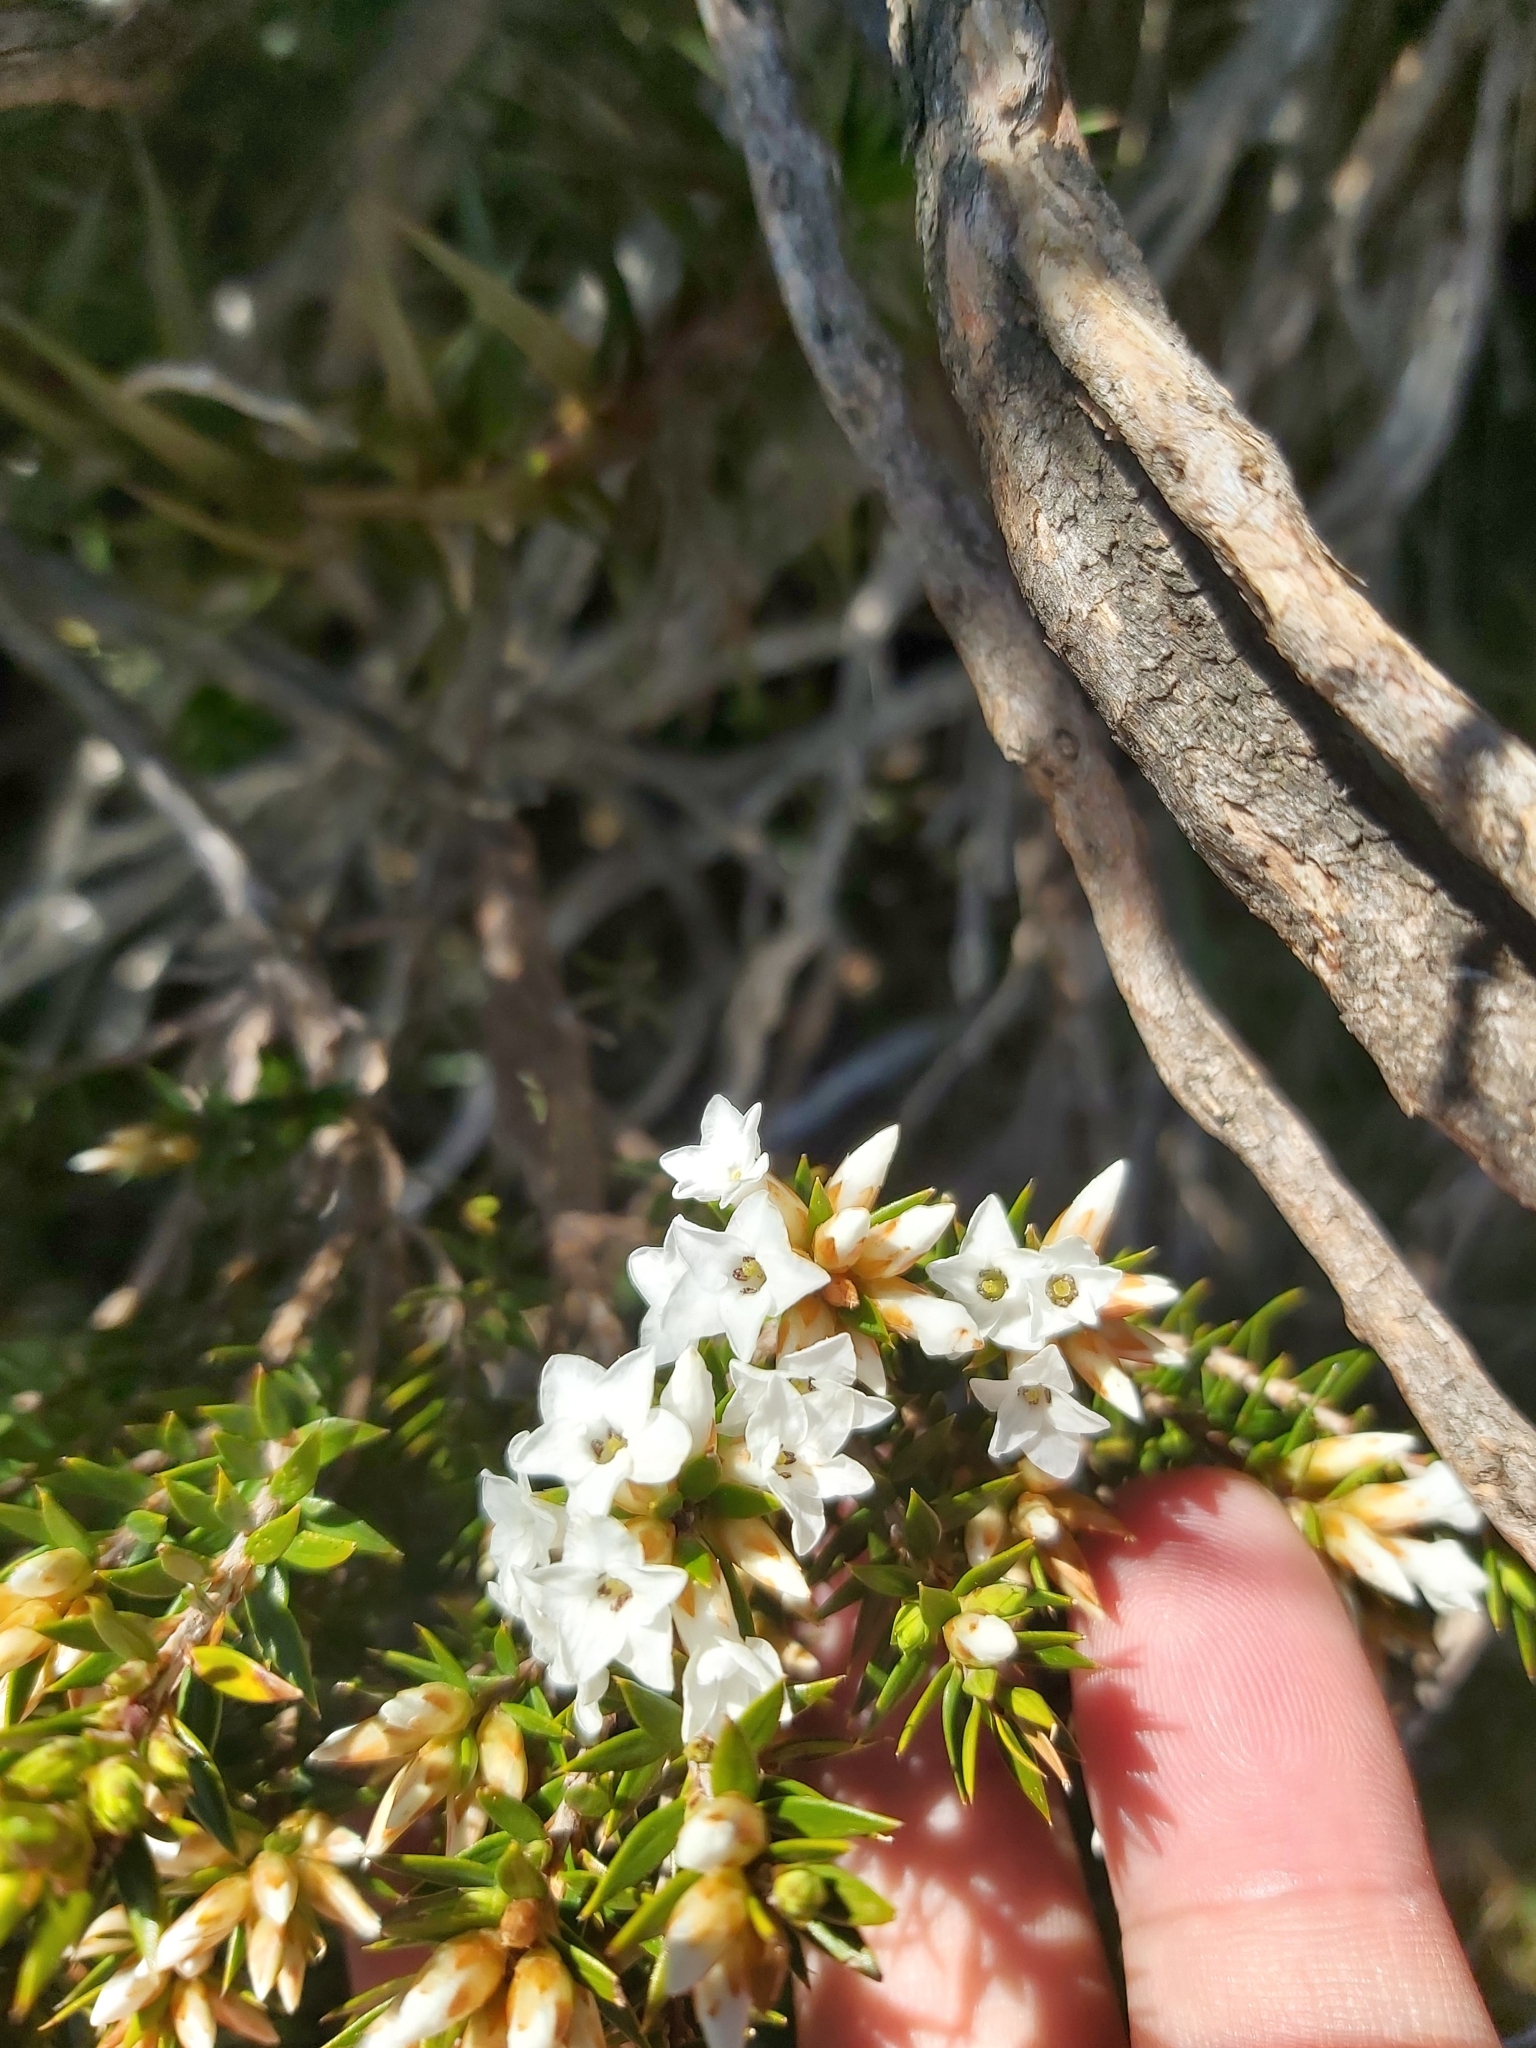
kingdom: Plantae
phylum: Tracheophyta
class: Magnoliopsida
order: Ericales
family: Ericaceae
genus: Epacris
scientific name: Epacris paludosa
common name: Swamp-heath
